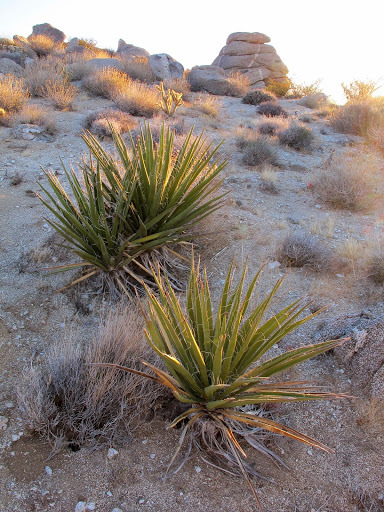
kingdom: Plantae
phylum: Tracheophyta
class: Liliopsida
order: Asparagales
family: Asparagaceae
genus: Yucca
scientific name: Yucca schidigera
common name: Mojave yucca
